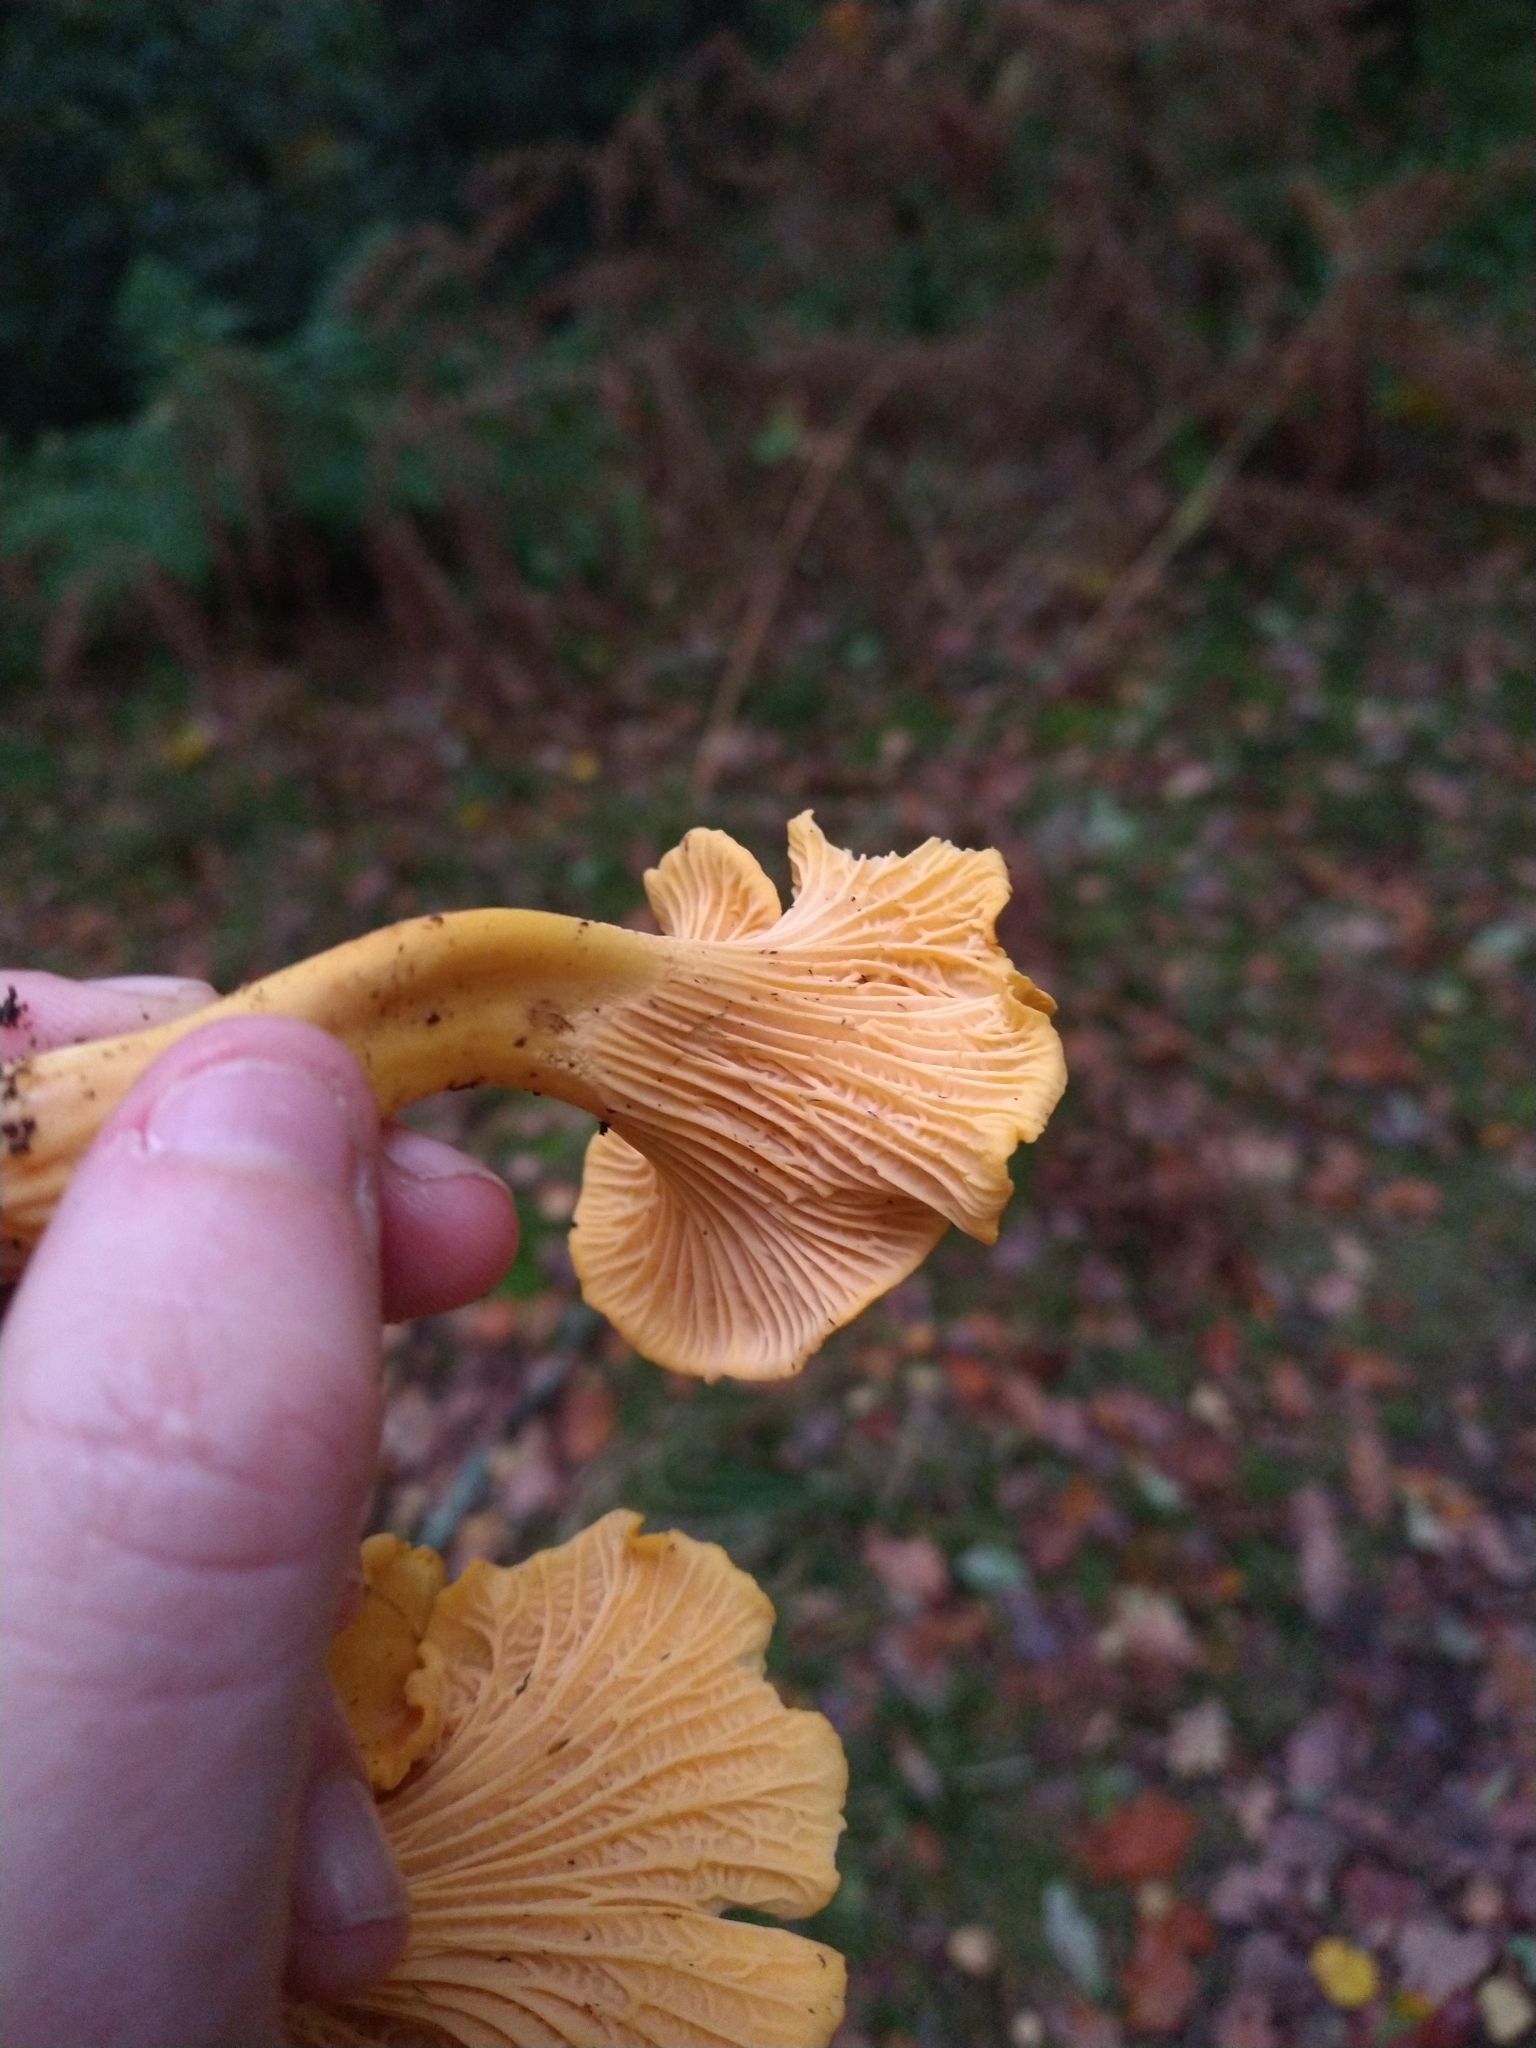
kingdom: Fungi
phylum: Basidiomycota
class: Agaricomycetes
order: Cantharellales
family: Hydnaceae
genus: Cantharellus
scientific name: Cantharellus cibarius
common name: Chanterelle
